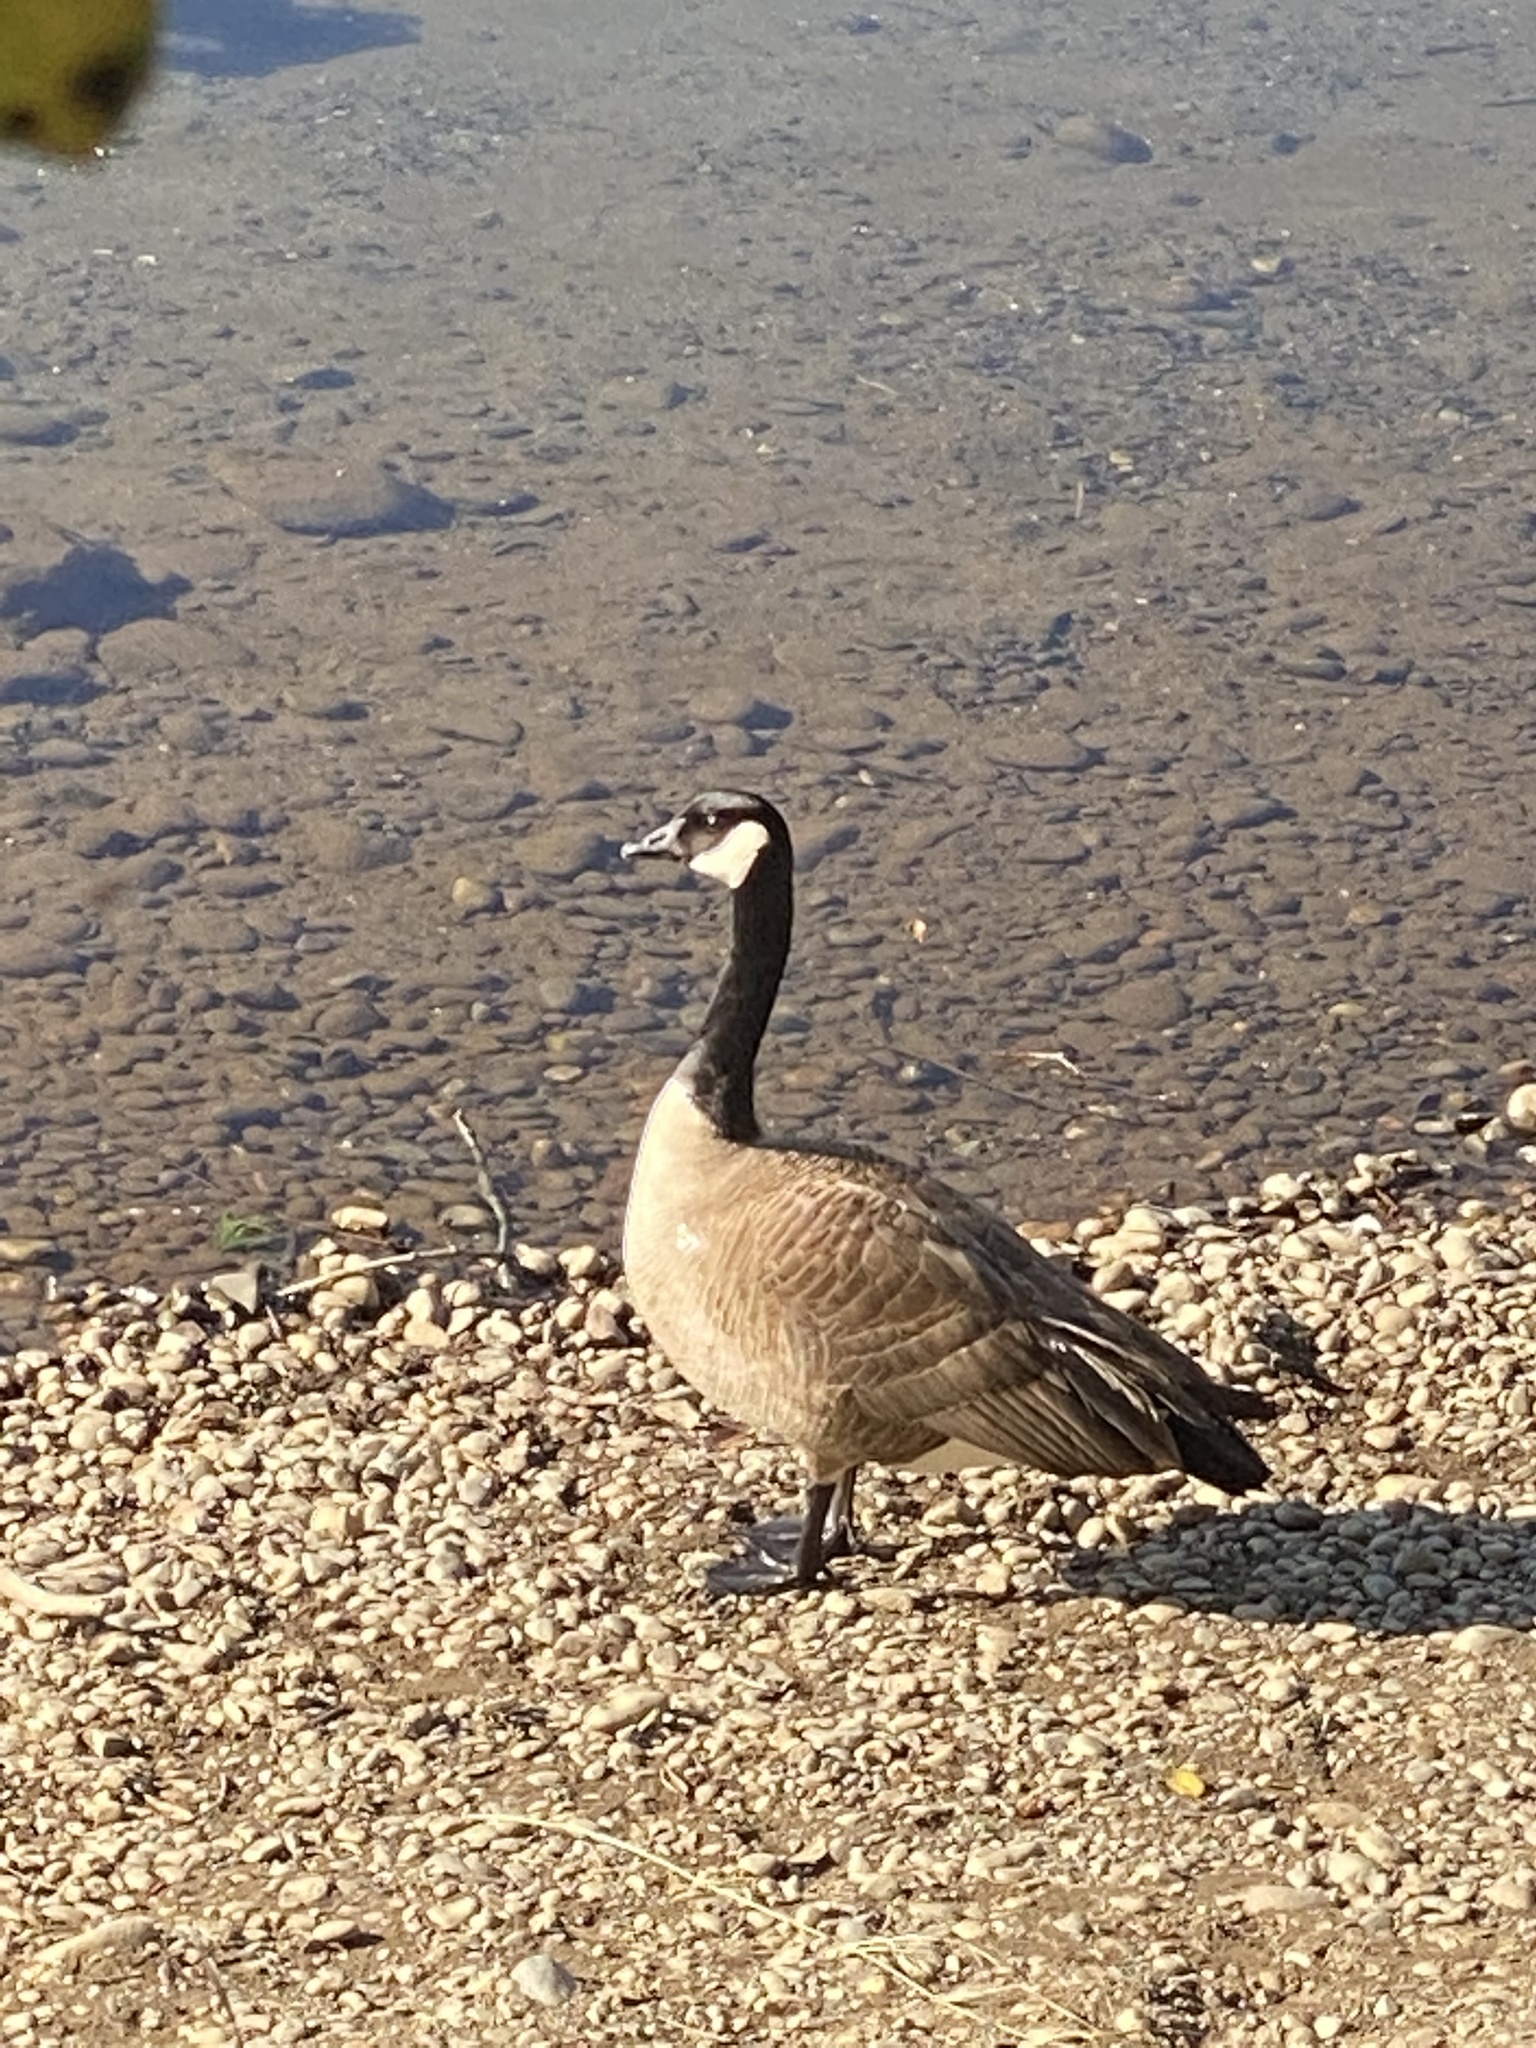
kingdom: Animalia
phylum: Chordata
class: Aves
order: Anseriformes
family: Anatidae
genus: Branta
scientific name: Branta canadensis
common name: Canada goose
